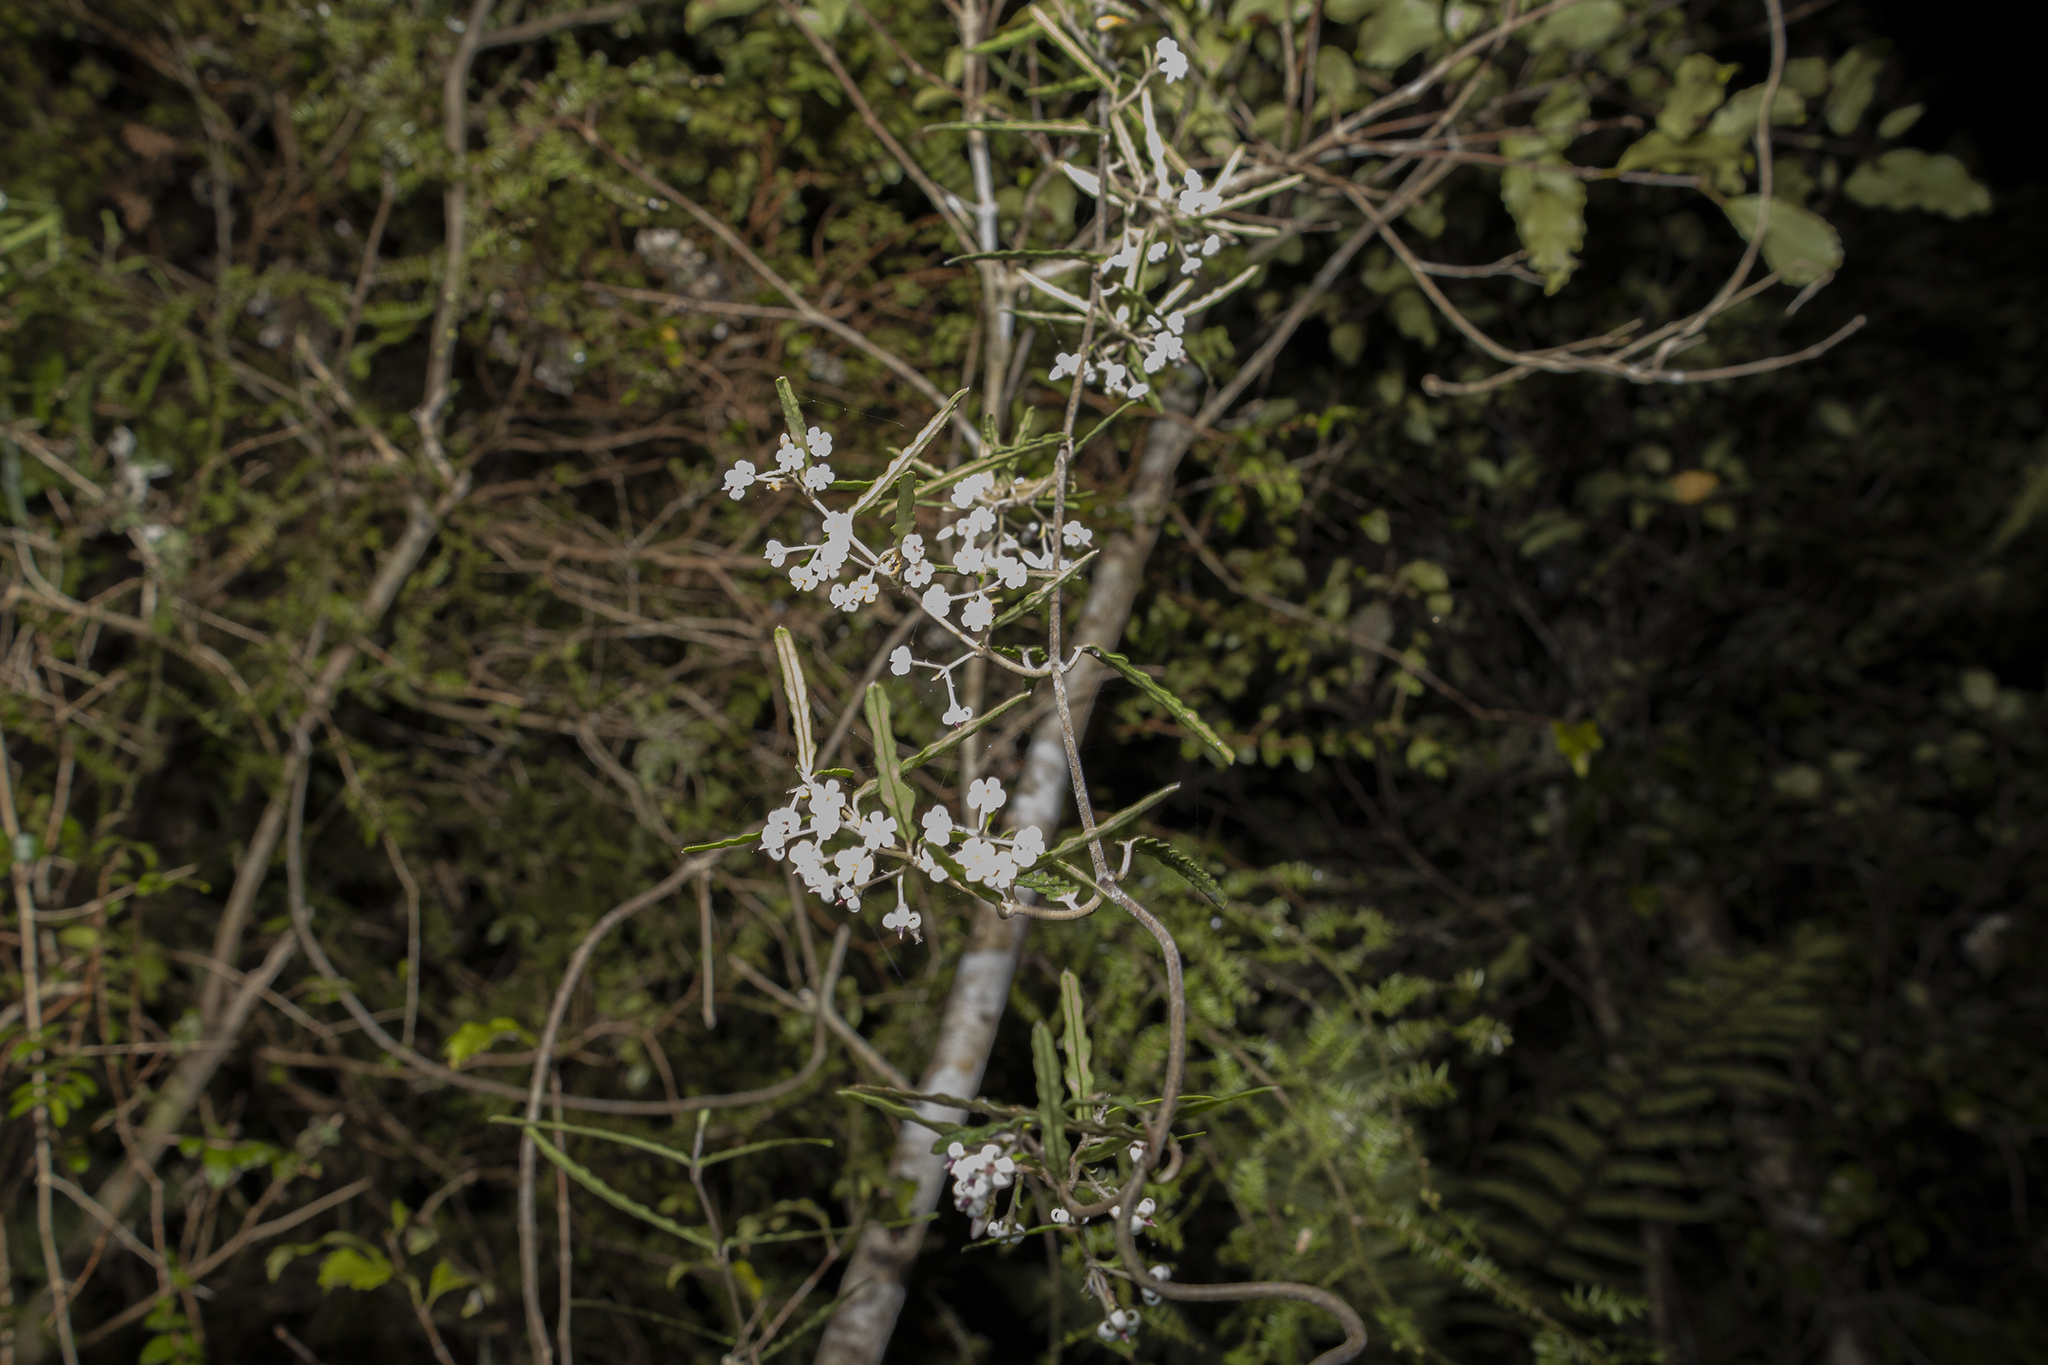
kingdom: Plantae
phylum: Tracheophyta
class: Magnoliopsida
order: Gentianales
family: Apocynaceae
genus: Parsonsia
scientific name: Parsonsia heterophylla
